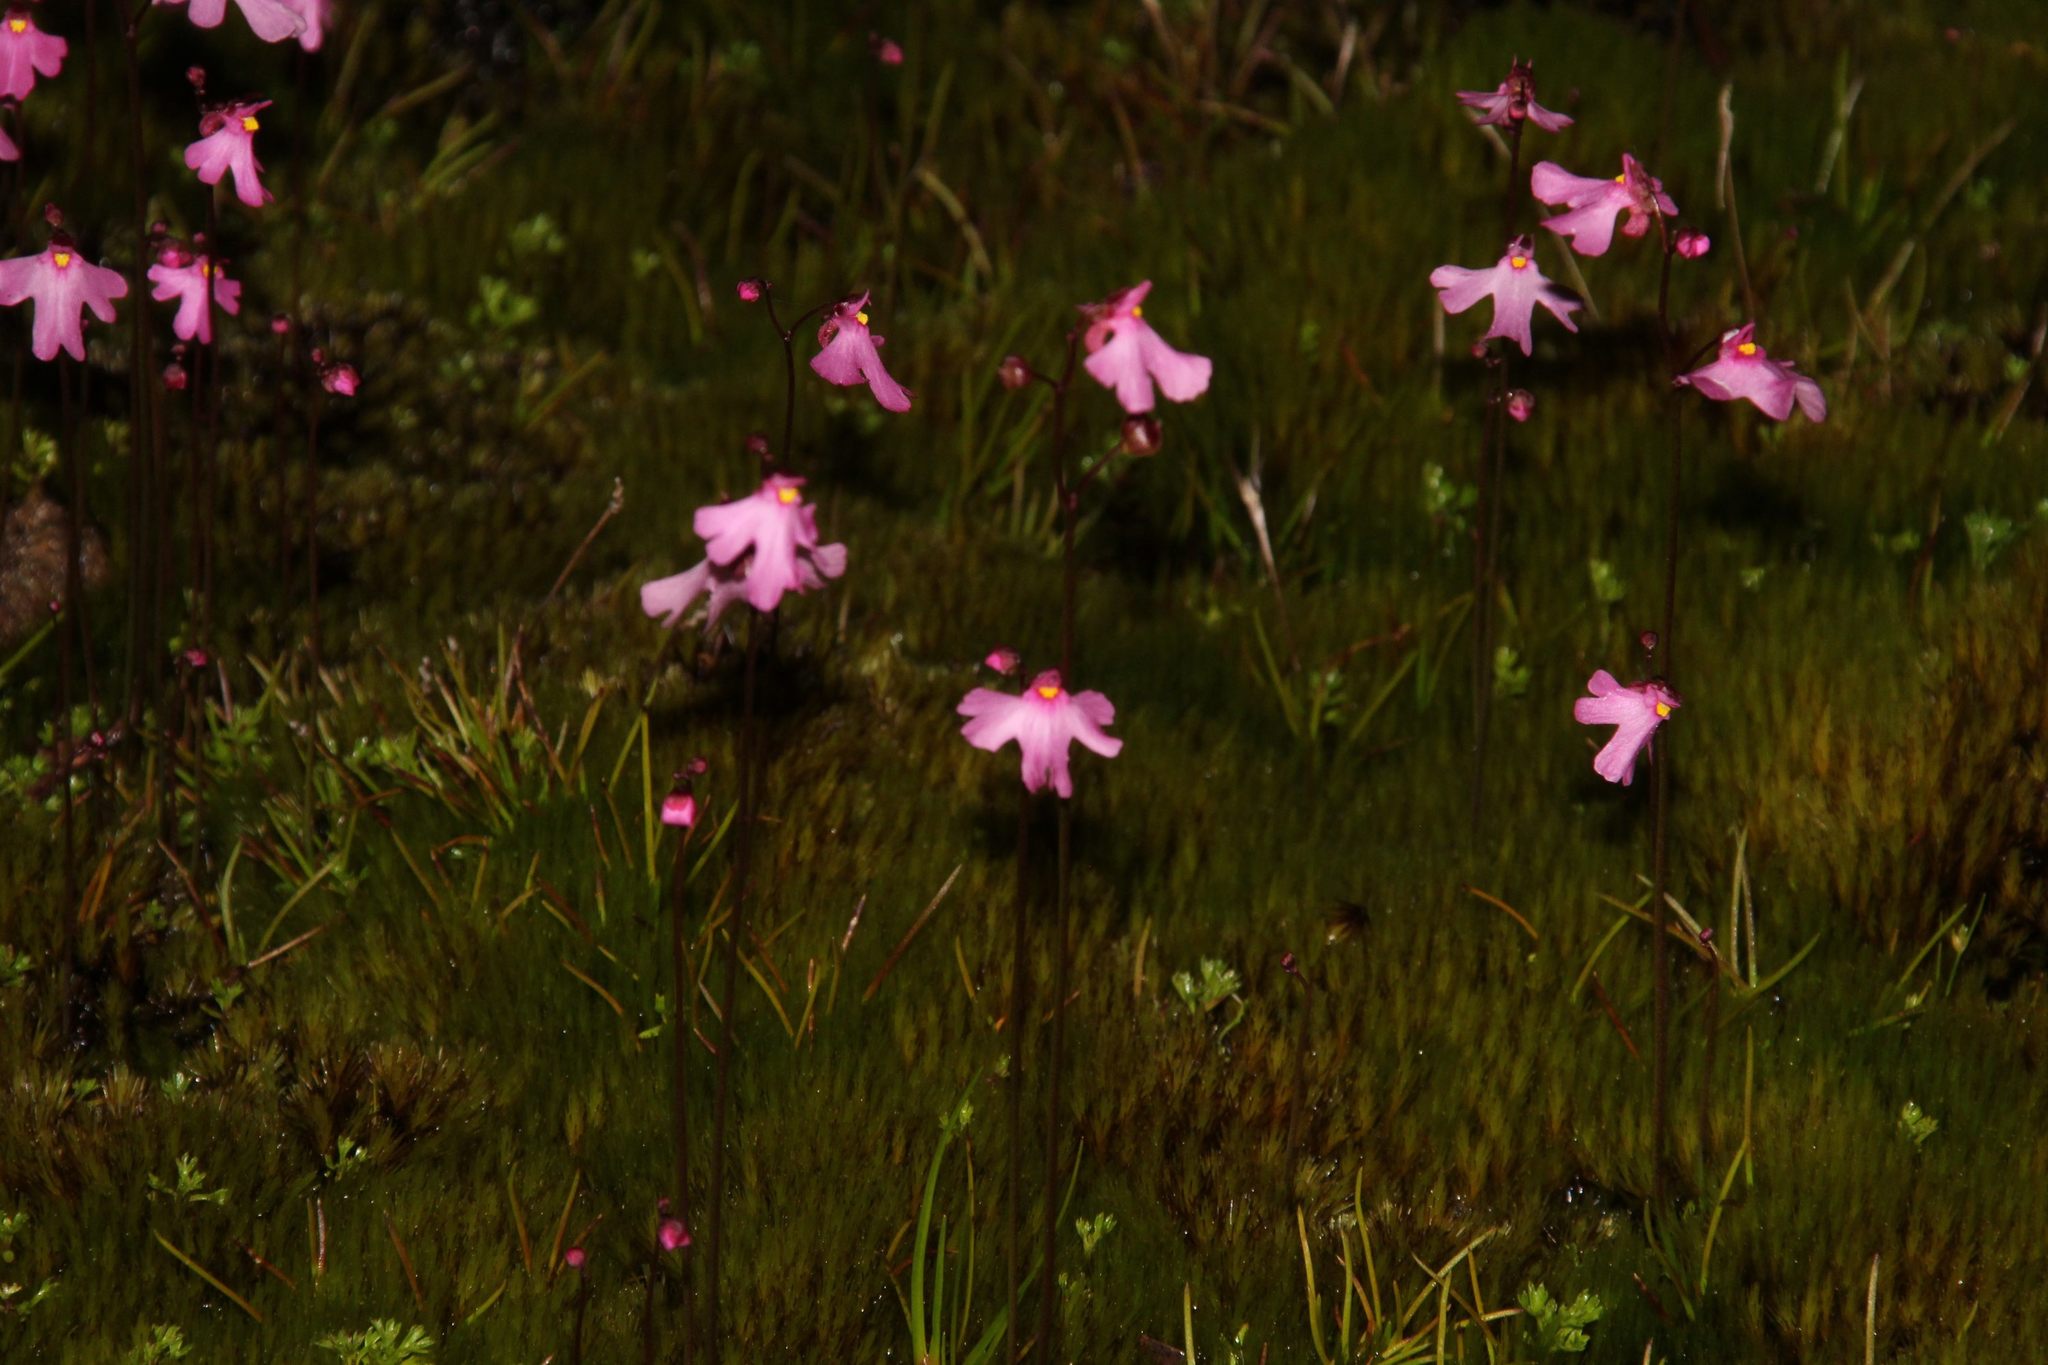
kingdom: Plantae
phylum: Tracheophyta
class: Magnoliopsida
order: Lamiales
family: Lentibulariaceae
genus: Utricularia
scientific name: Utricularia multifida
